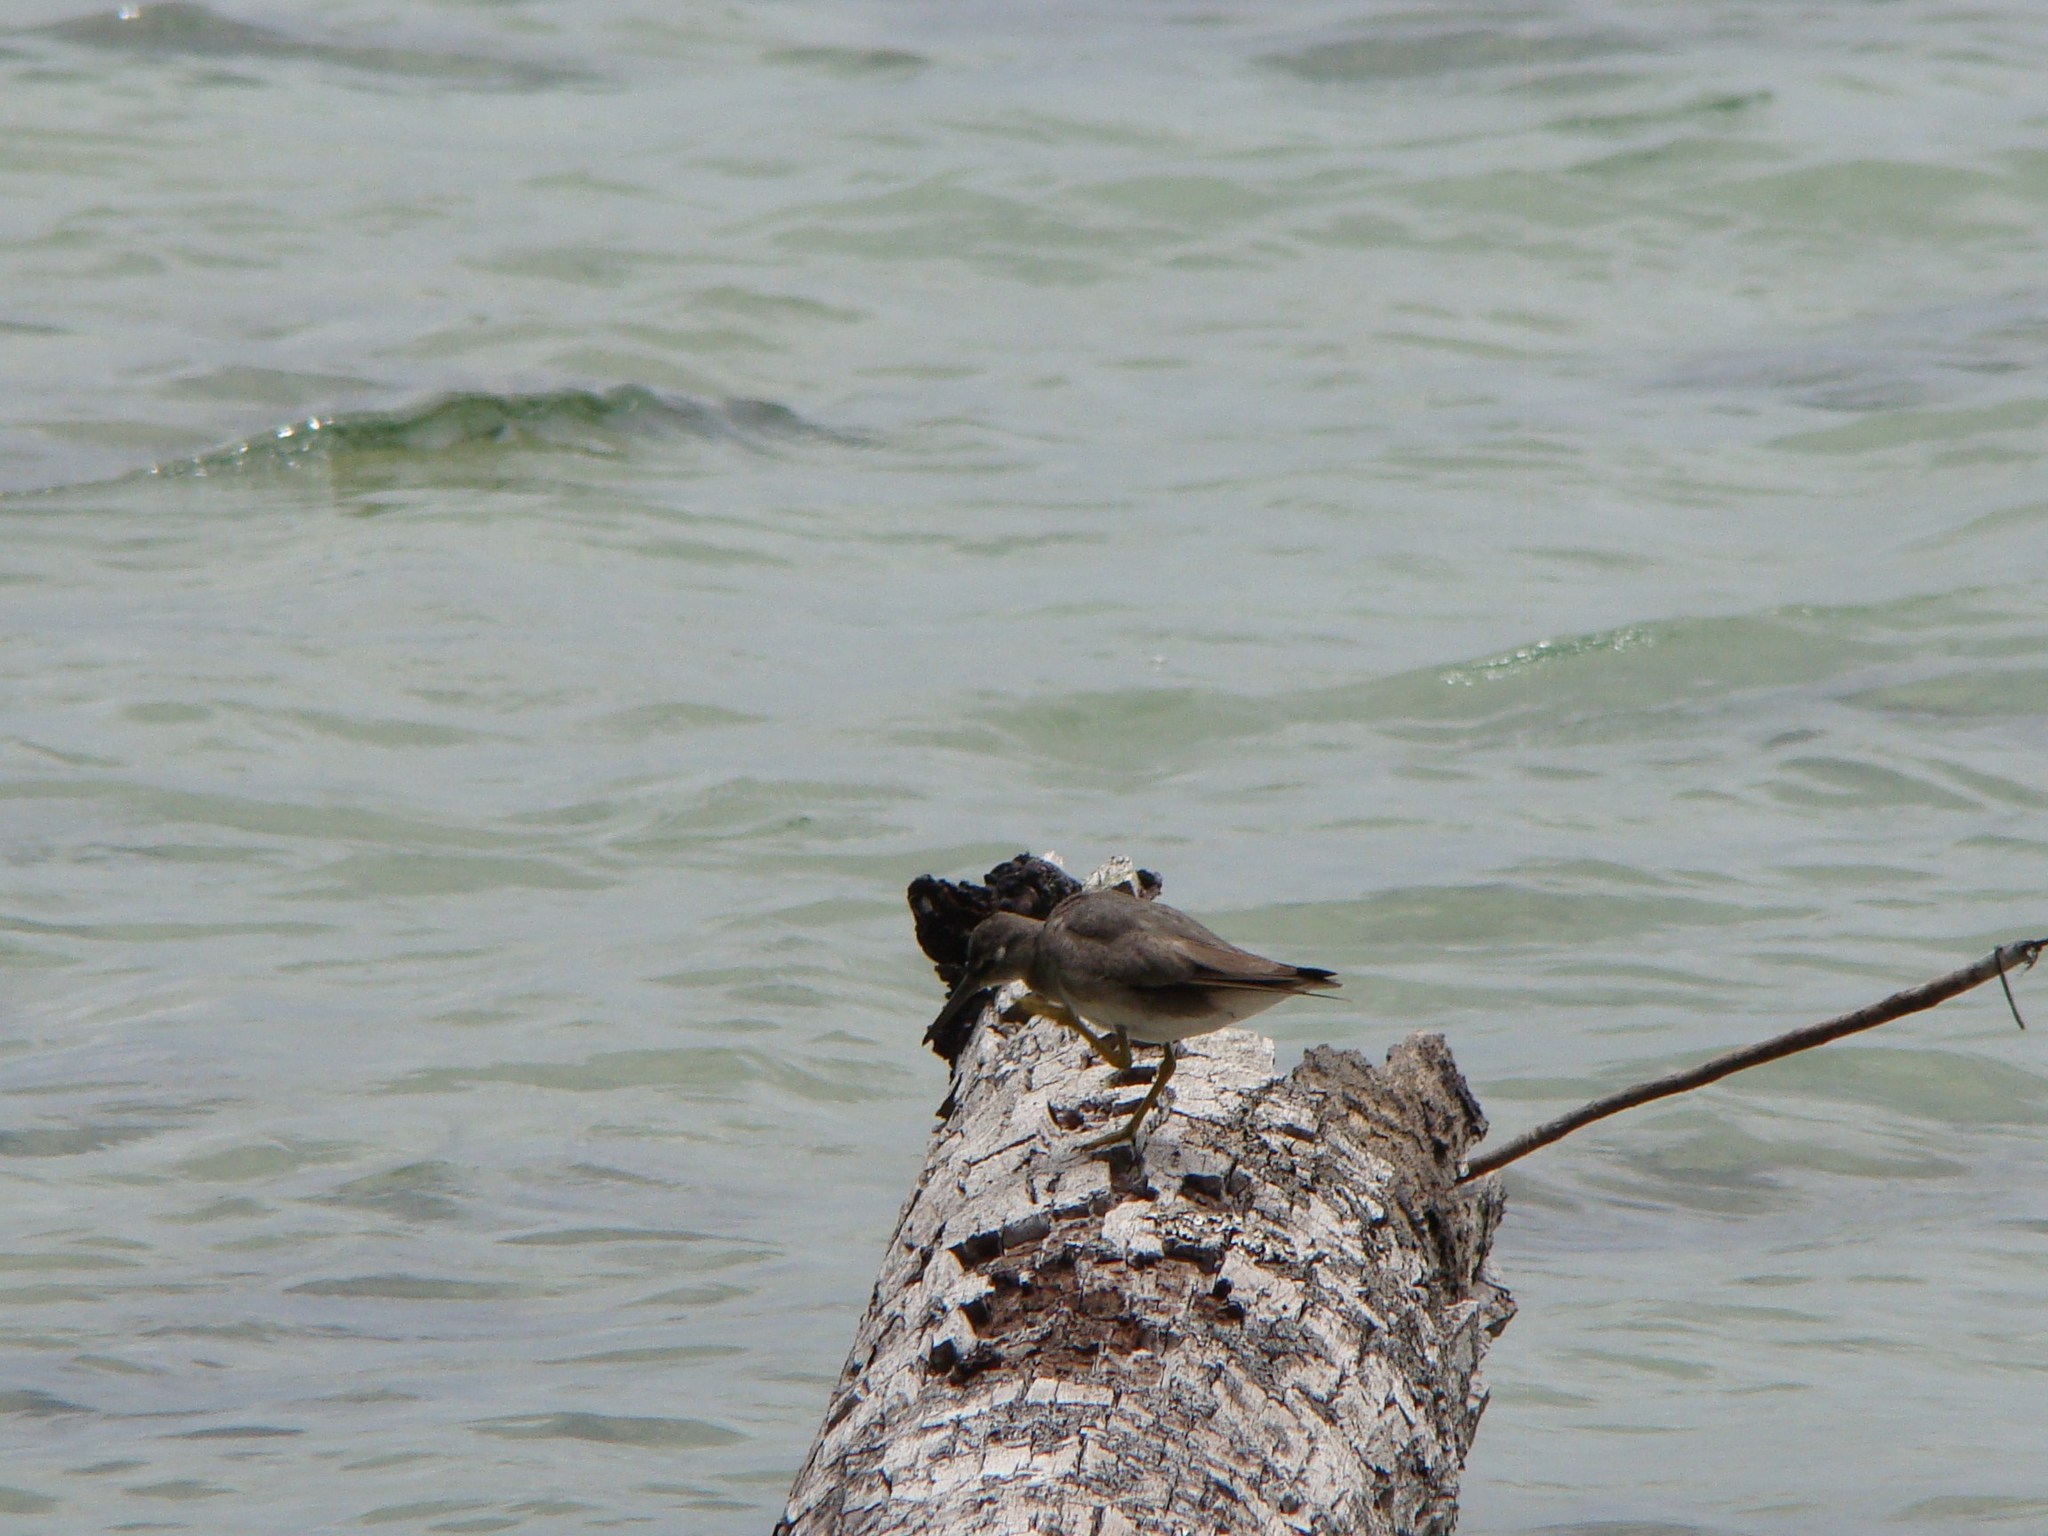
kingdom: Animalia
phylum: Chordata
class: Aves
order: Charadriiformes
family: Scolopacidae
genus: Tringa
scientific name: Tringa incana
